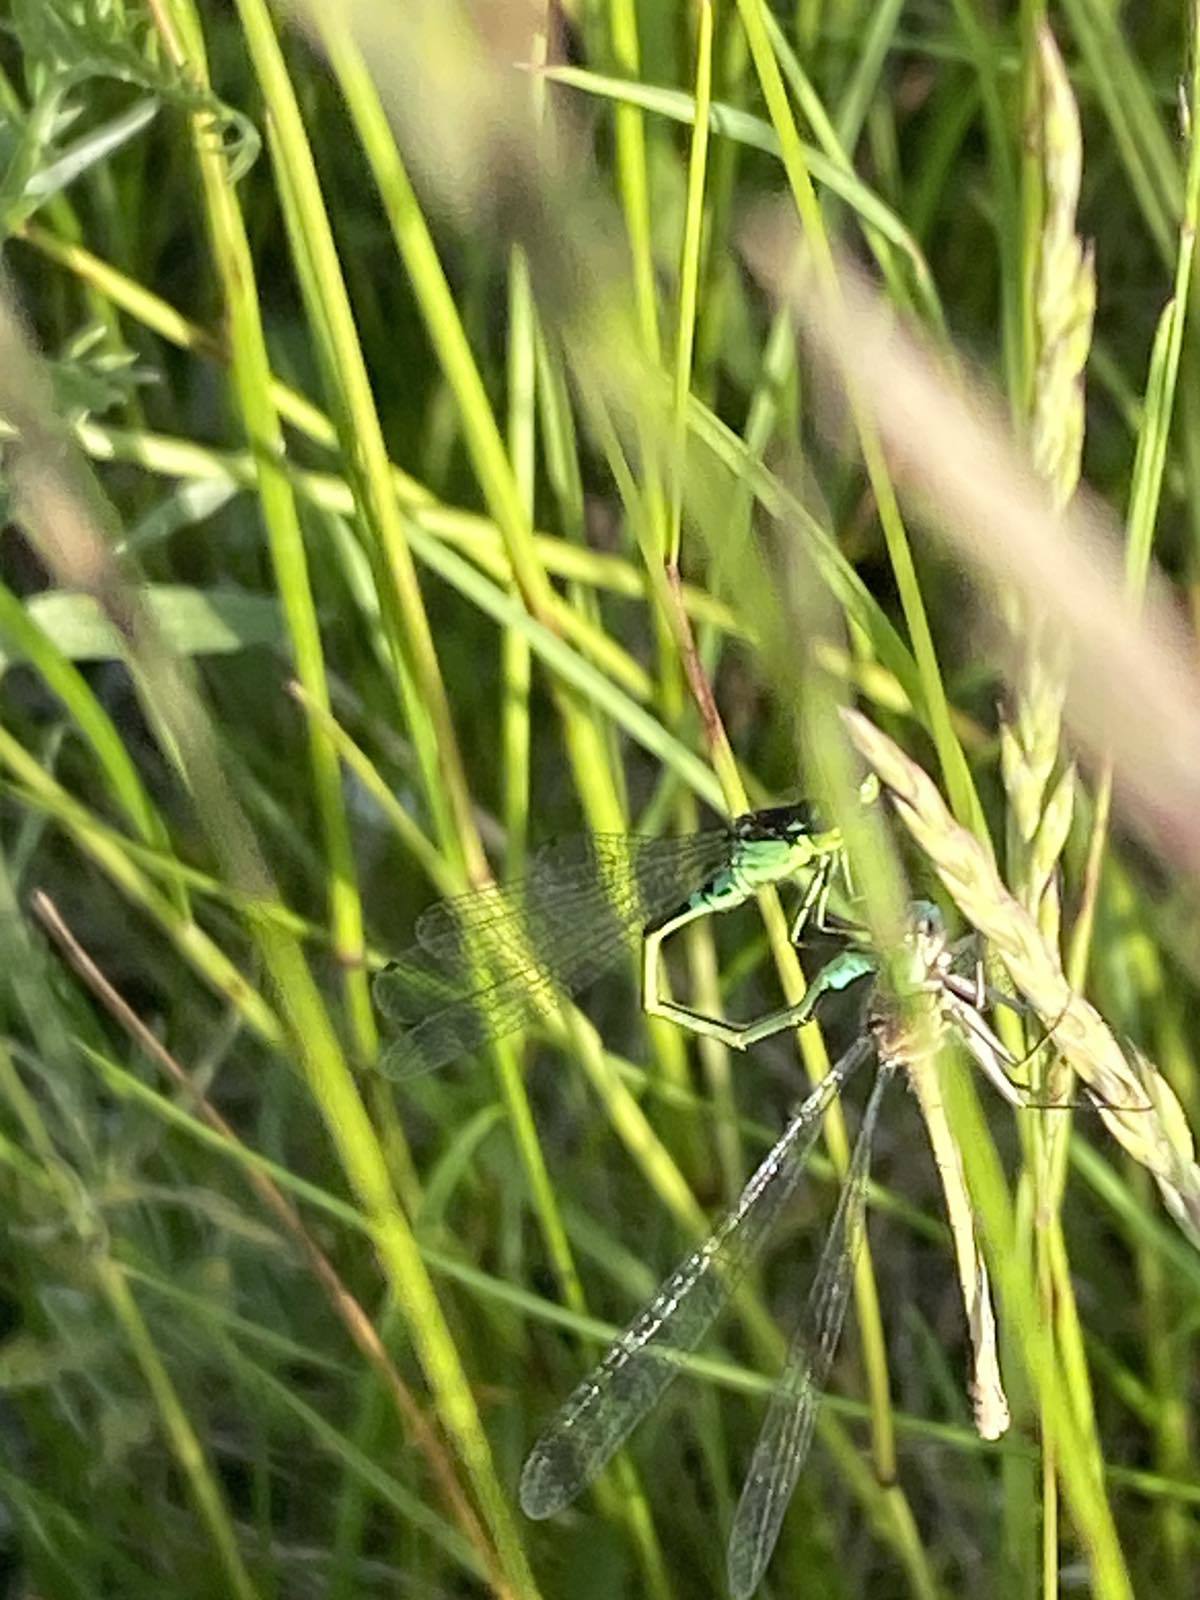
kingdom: Animalia
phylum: Arthropoda
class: Insecta
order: Odonata
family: Coenagrionidae
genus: Coenagrion
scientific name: Coenagrion armatum
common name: Dark bluet
